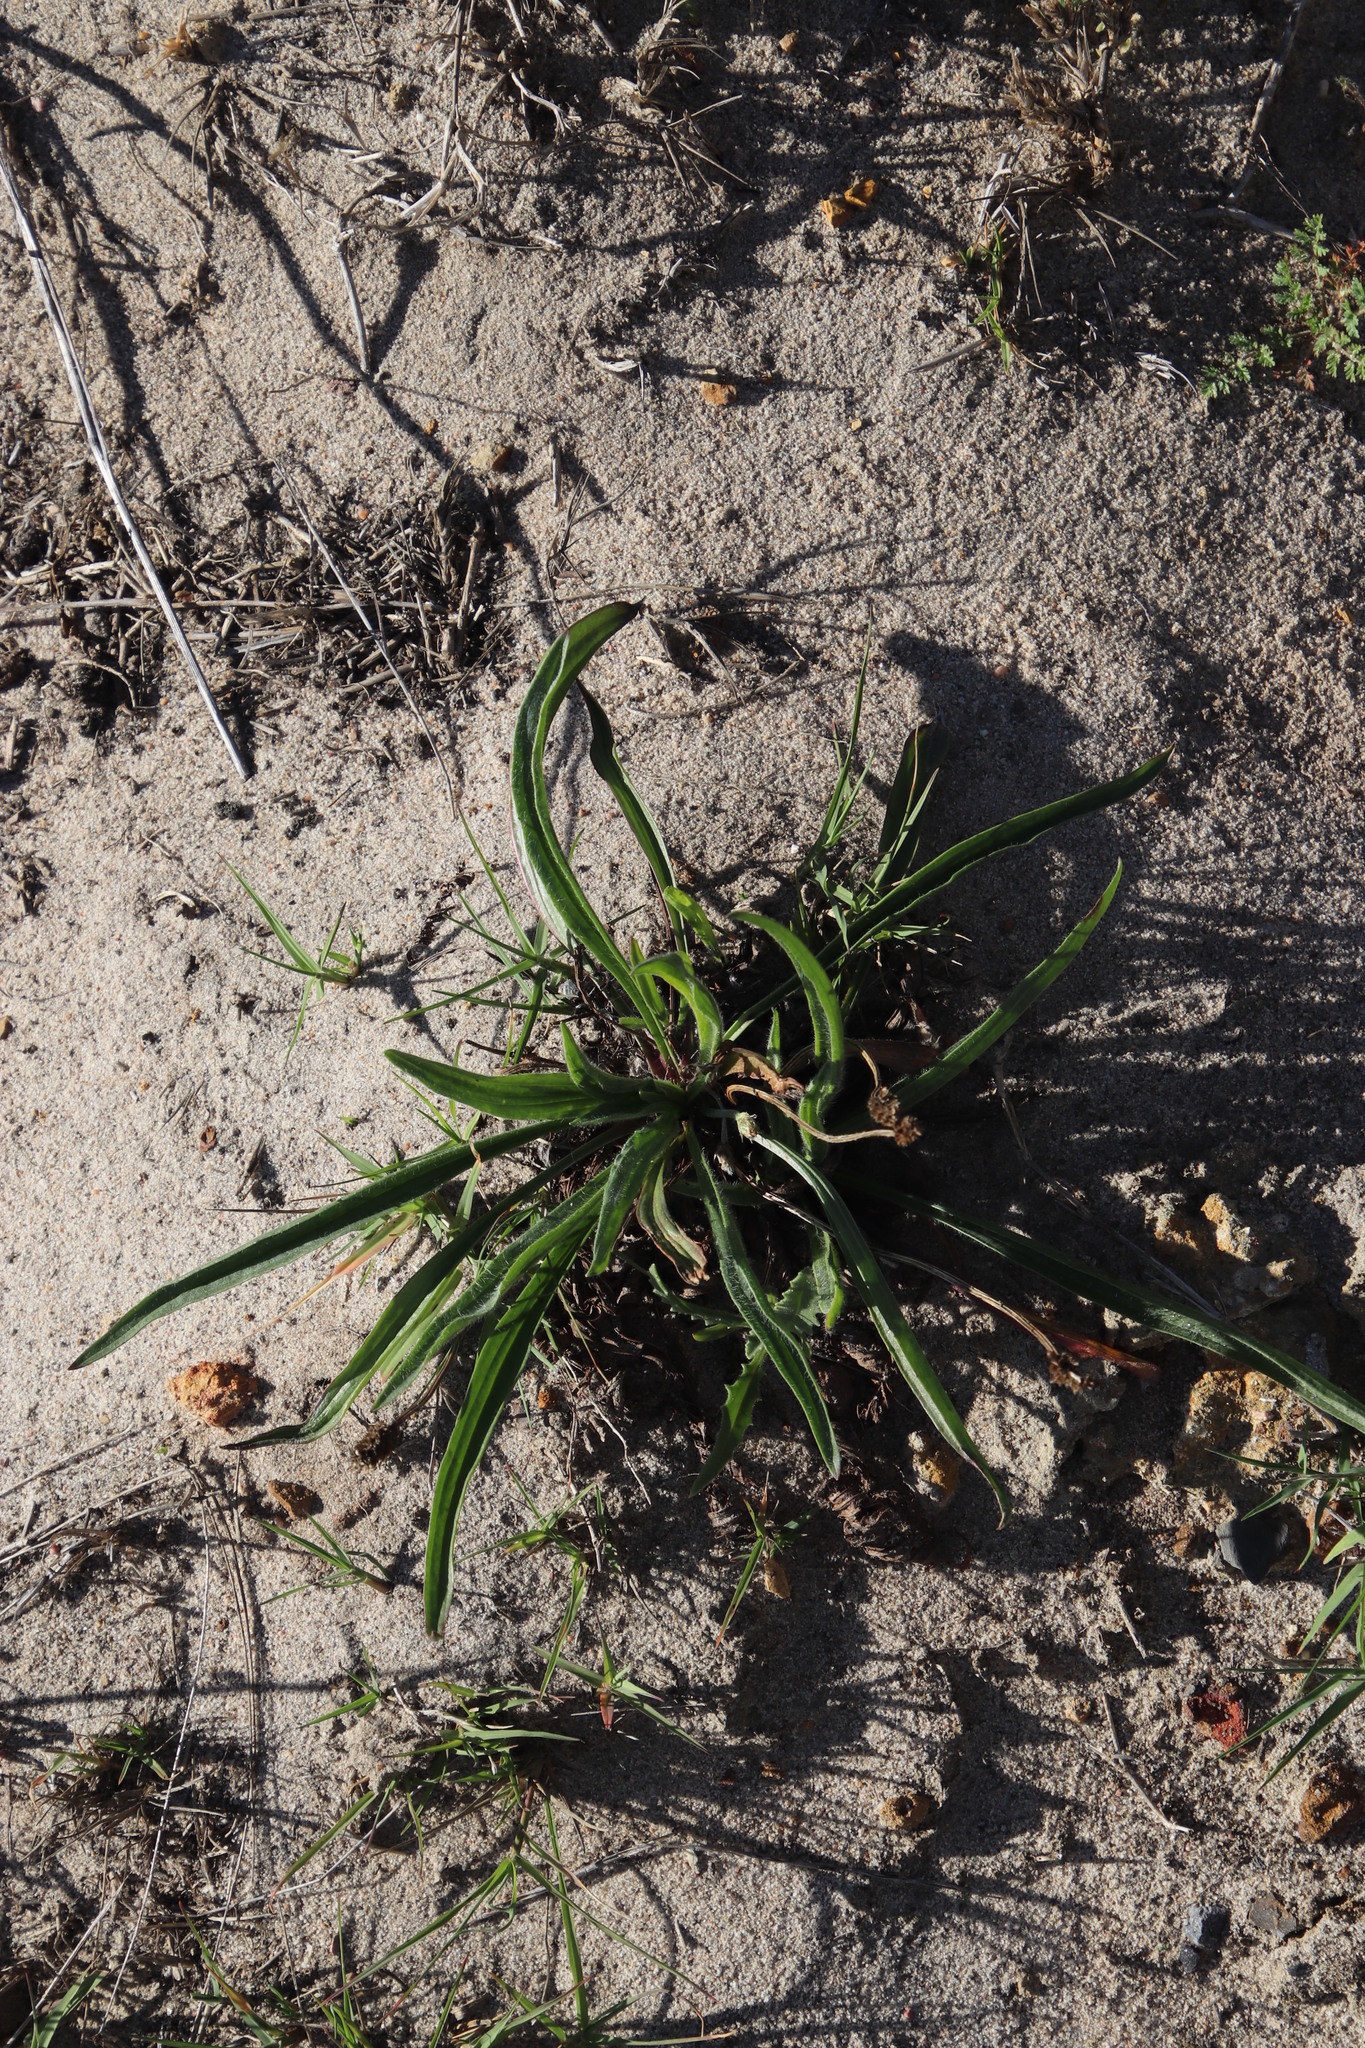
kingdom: Plantae
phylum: Tracheophyta
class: Magnoliopsida
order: Lamiales
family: Plantaginaceae
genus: Plantago
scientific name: Plantago lanceolata
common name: Ribwort plantain
